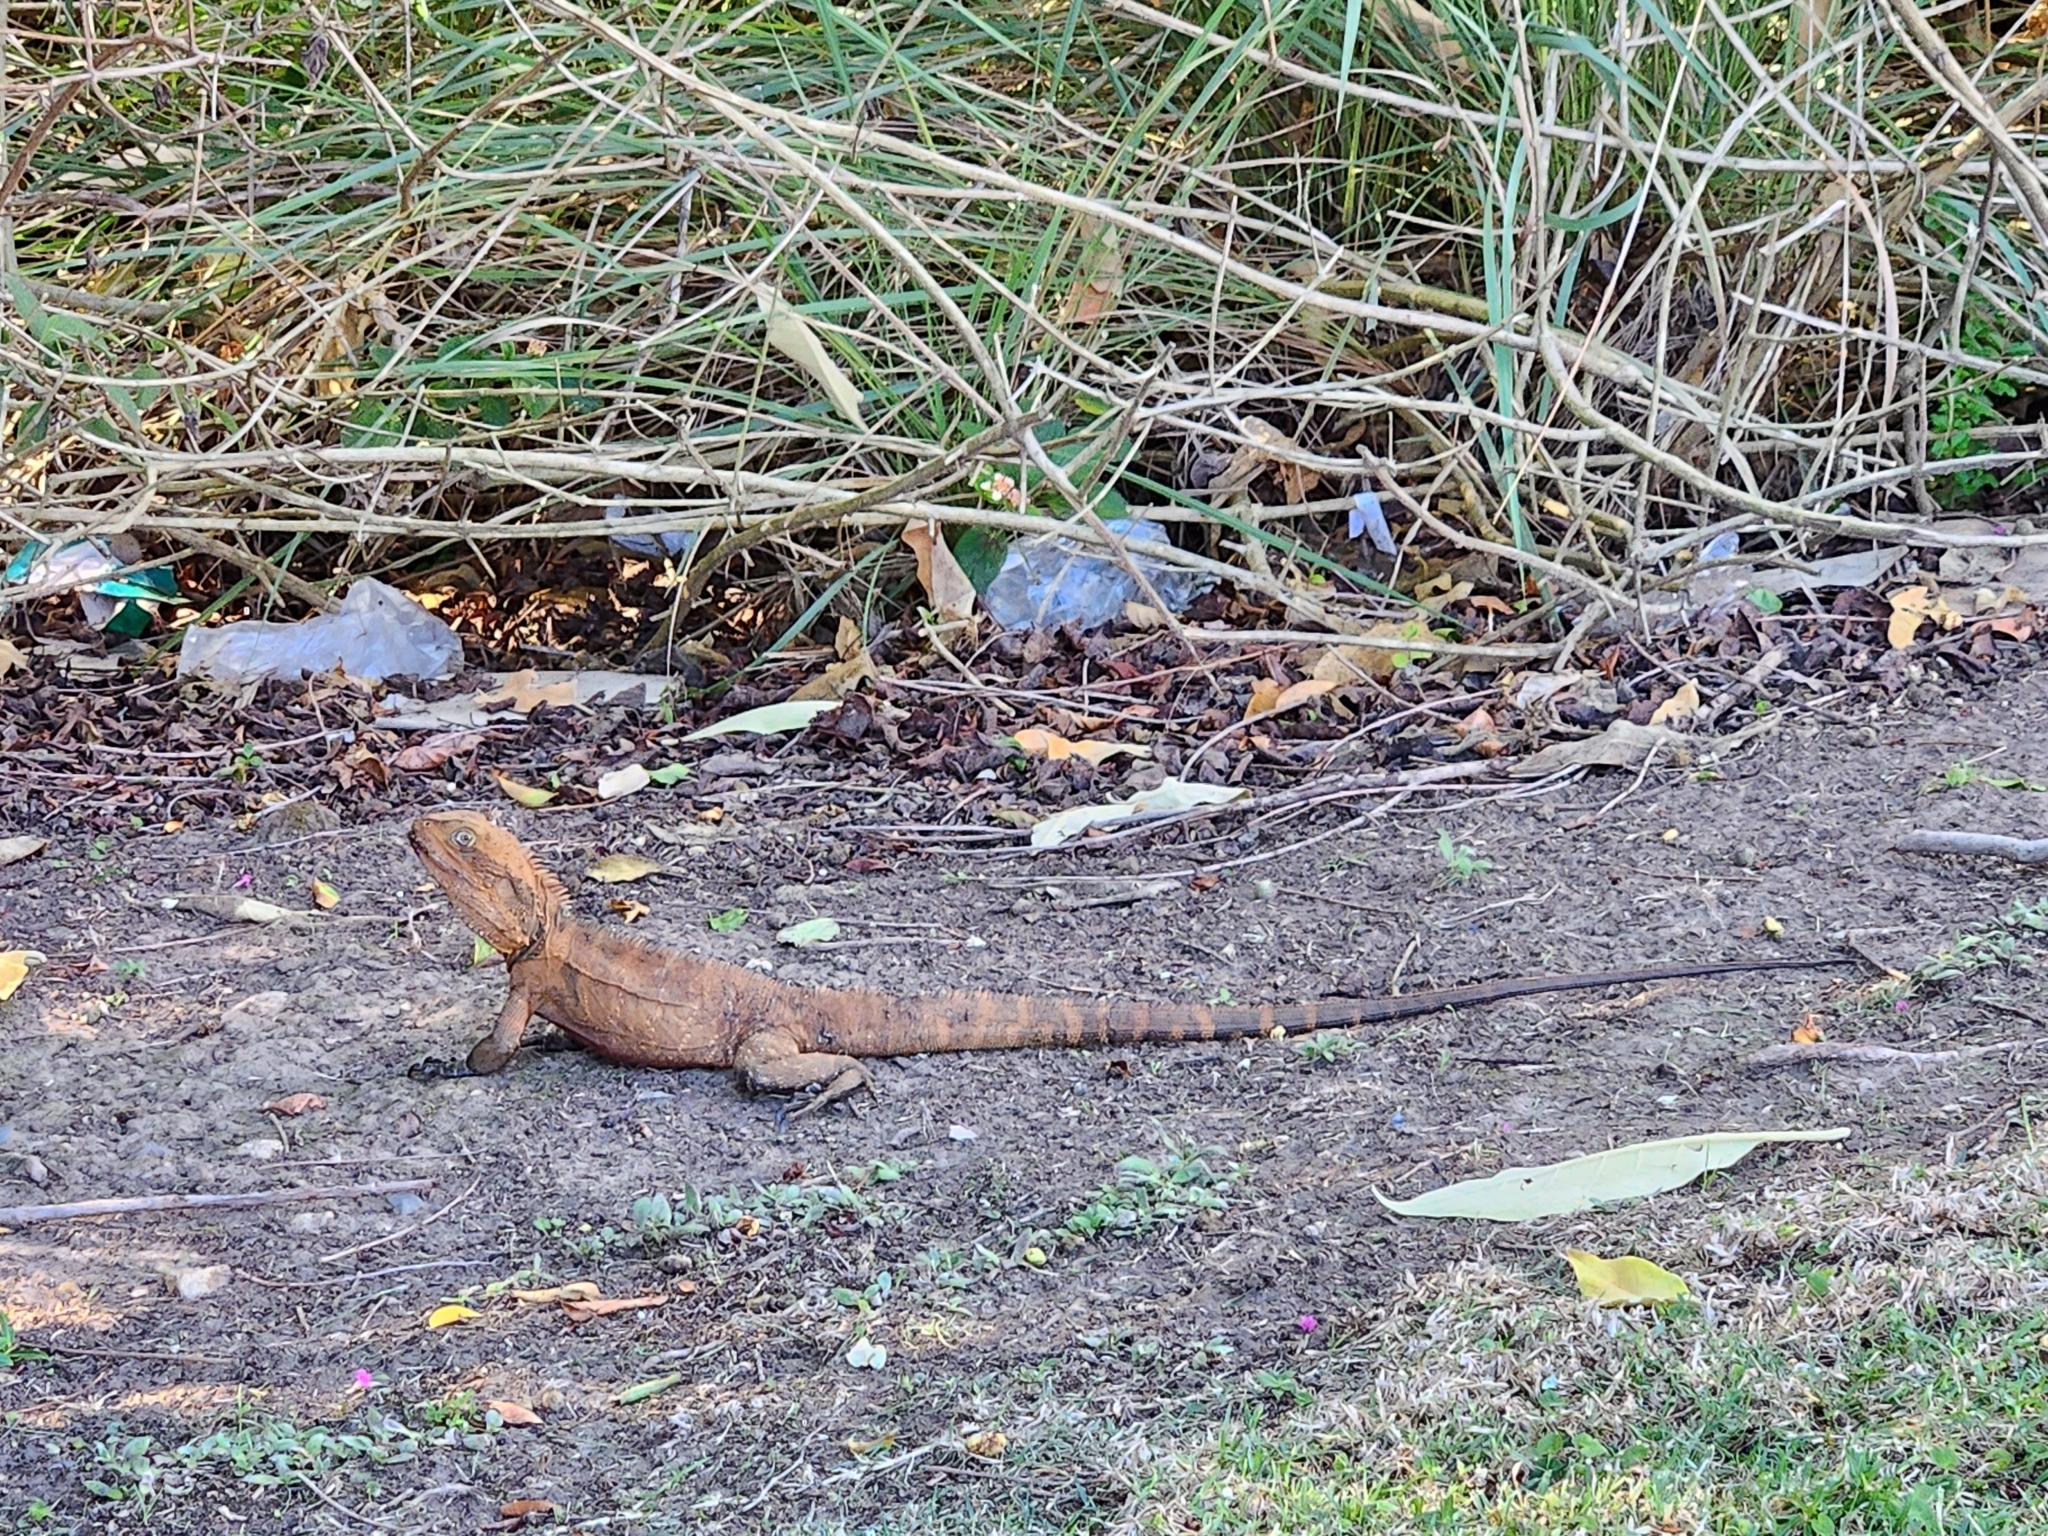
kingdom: Animalia
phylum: Chordata
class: Squamata
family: Agamidae
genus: Intellagama
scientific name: Intellagama lesueurii
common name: Eastern water dragon
